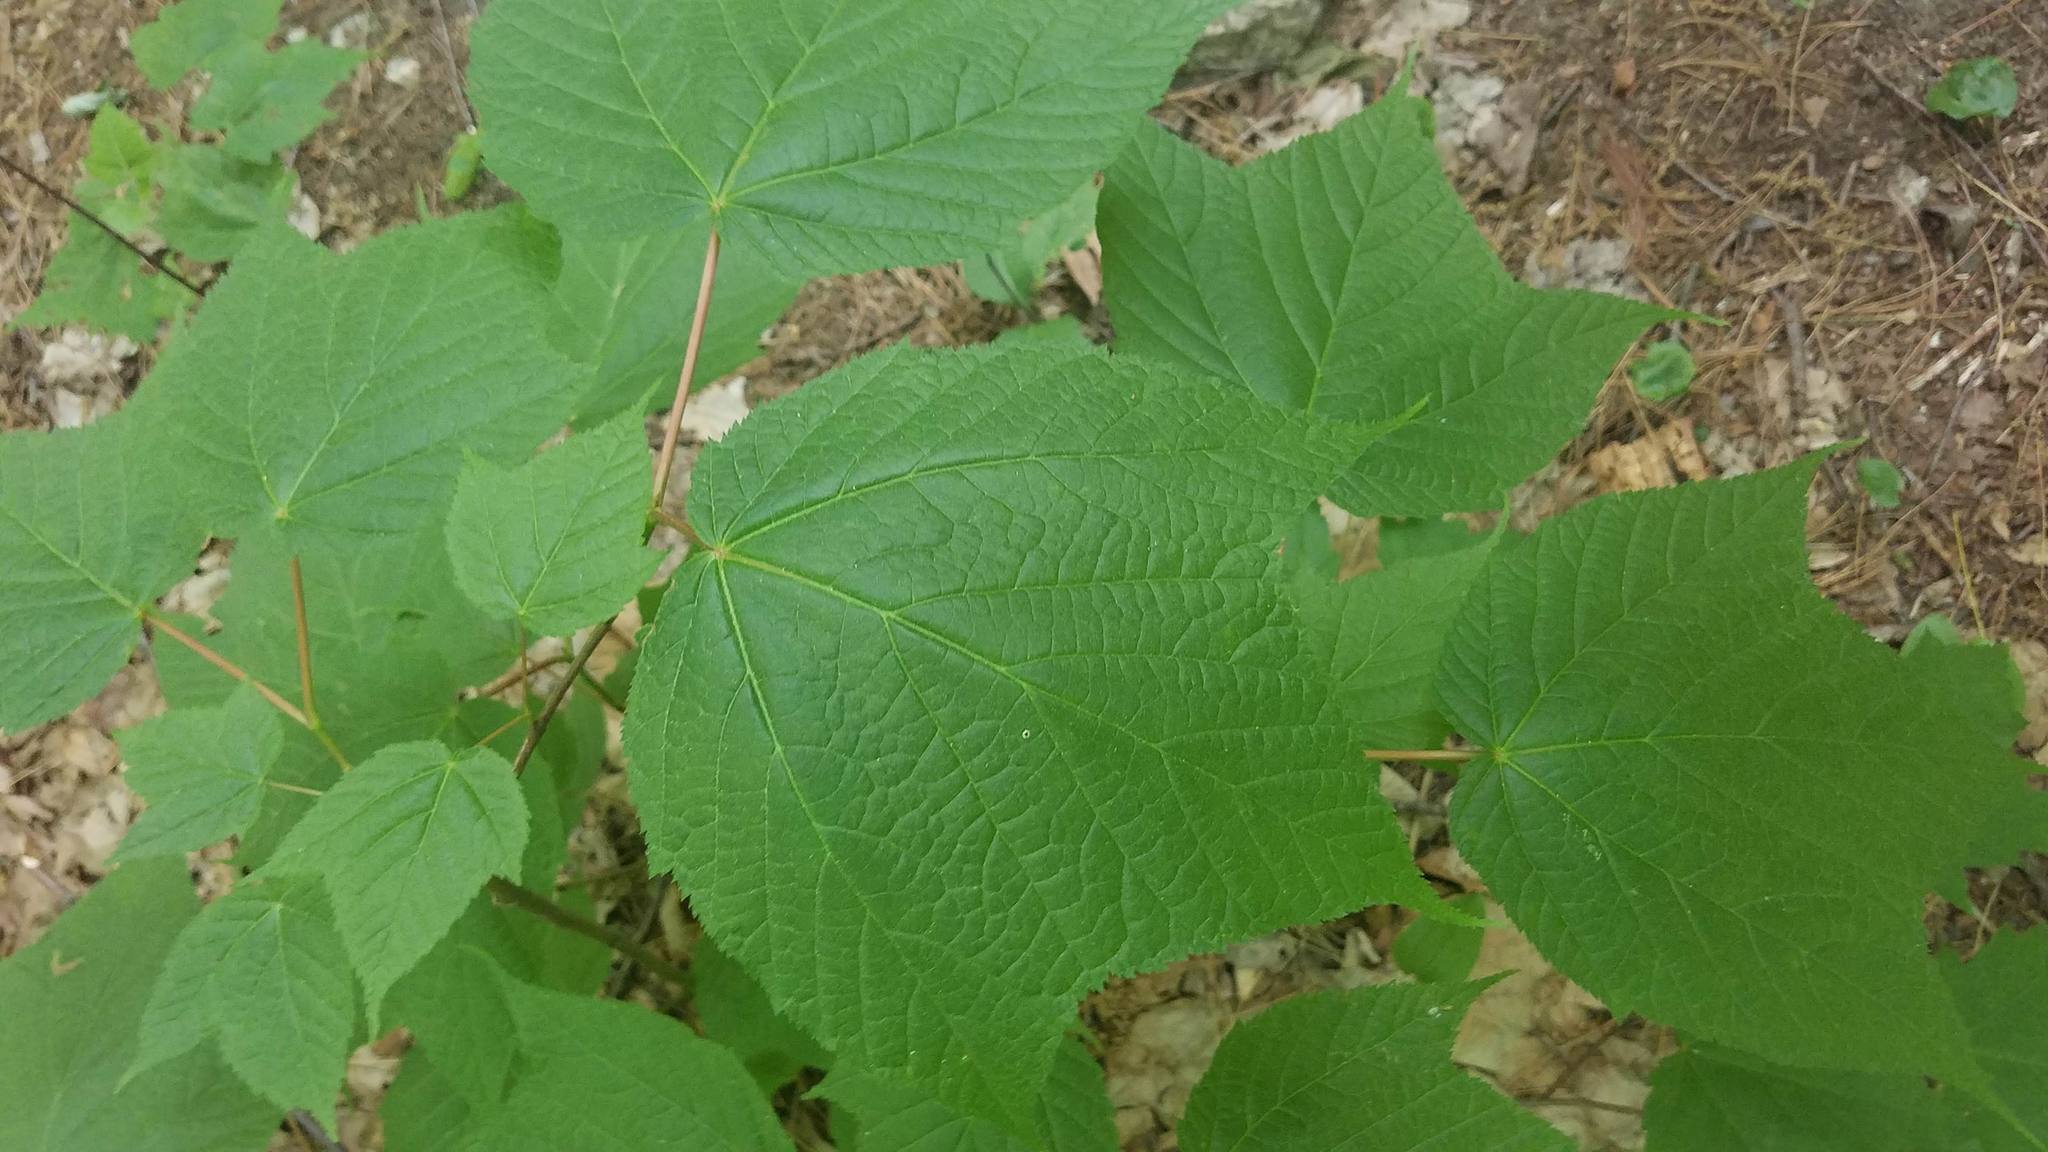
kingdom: Plantae
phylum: Tracheophyta
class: Magnoliopsida
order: Sapindales
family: Sapindaceae
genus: Acer
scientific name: Acer pensylvanicum
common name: Moosewood
